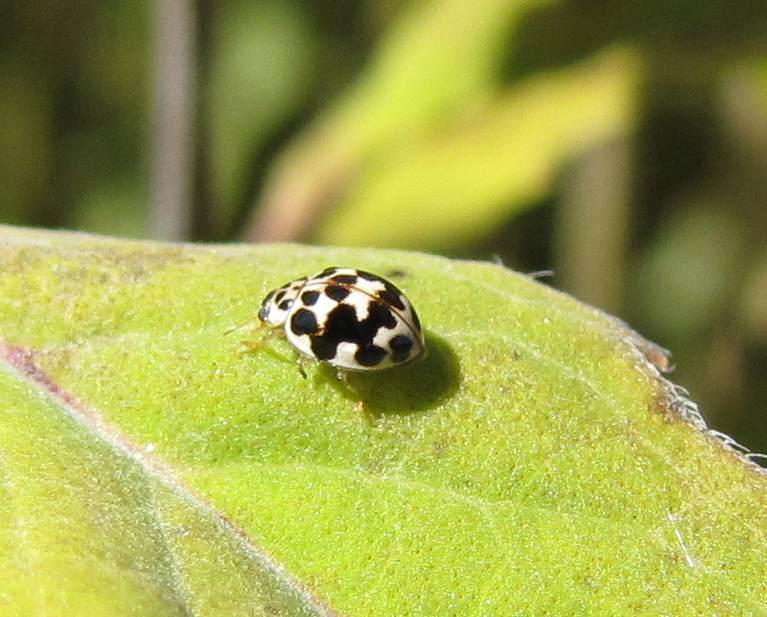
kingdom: Animalia
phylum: Arthropoda
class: Insecta
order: Coleoptera
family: Coccinellidae
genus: Psyllobora
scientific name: Psyllobora vigintimaculata
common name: Ladybird beetle
